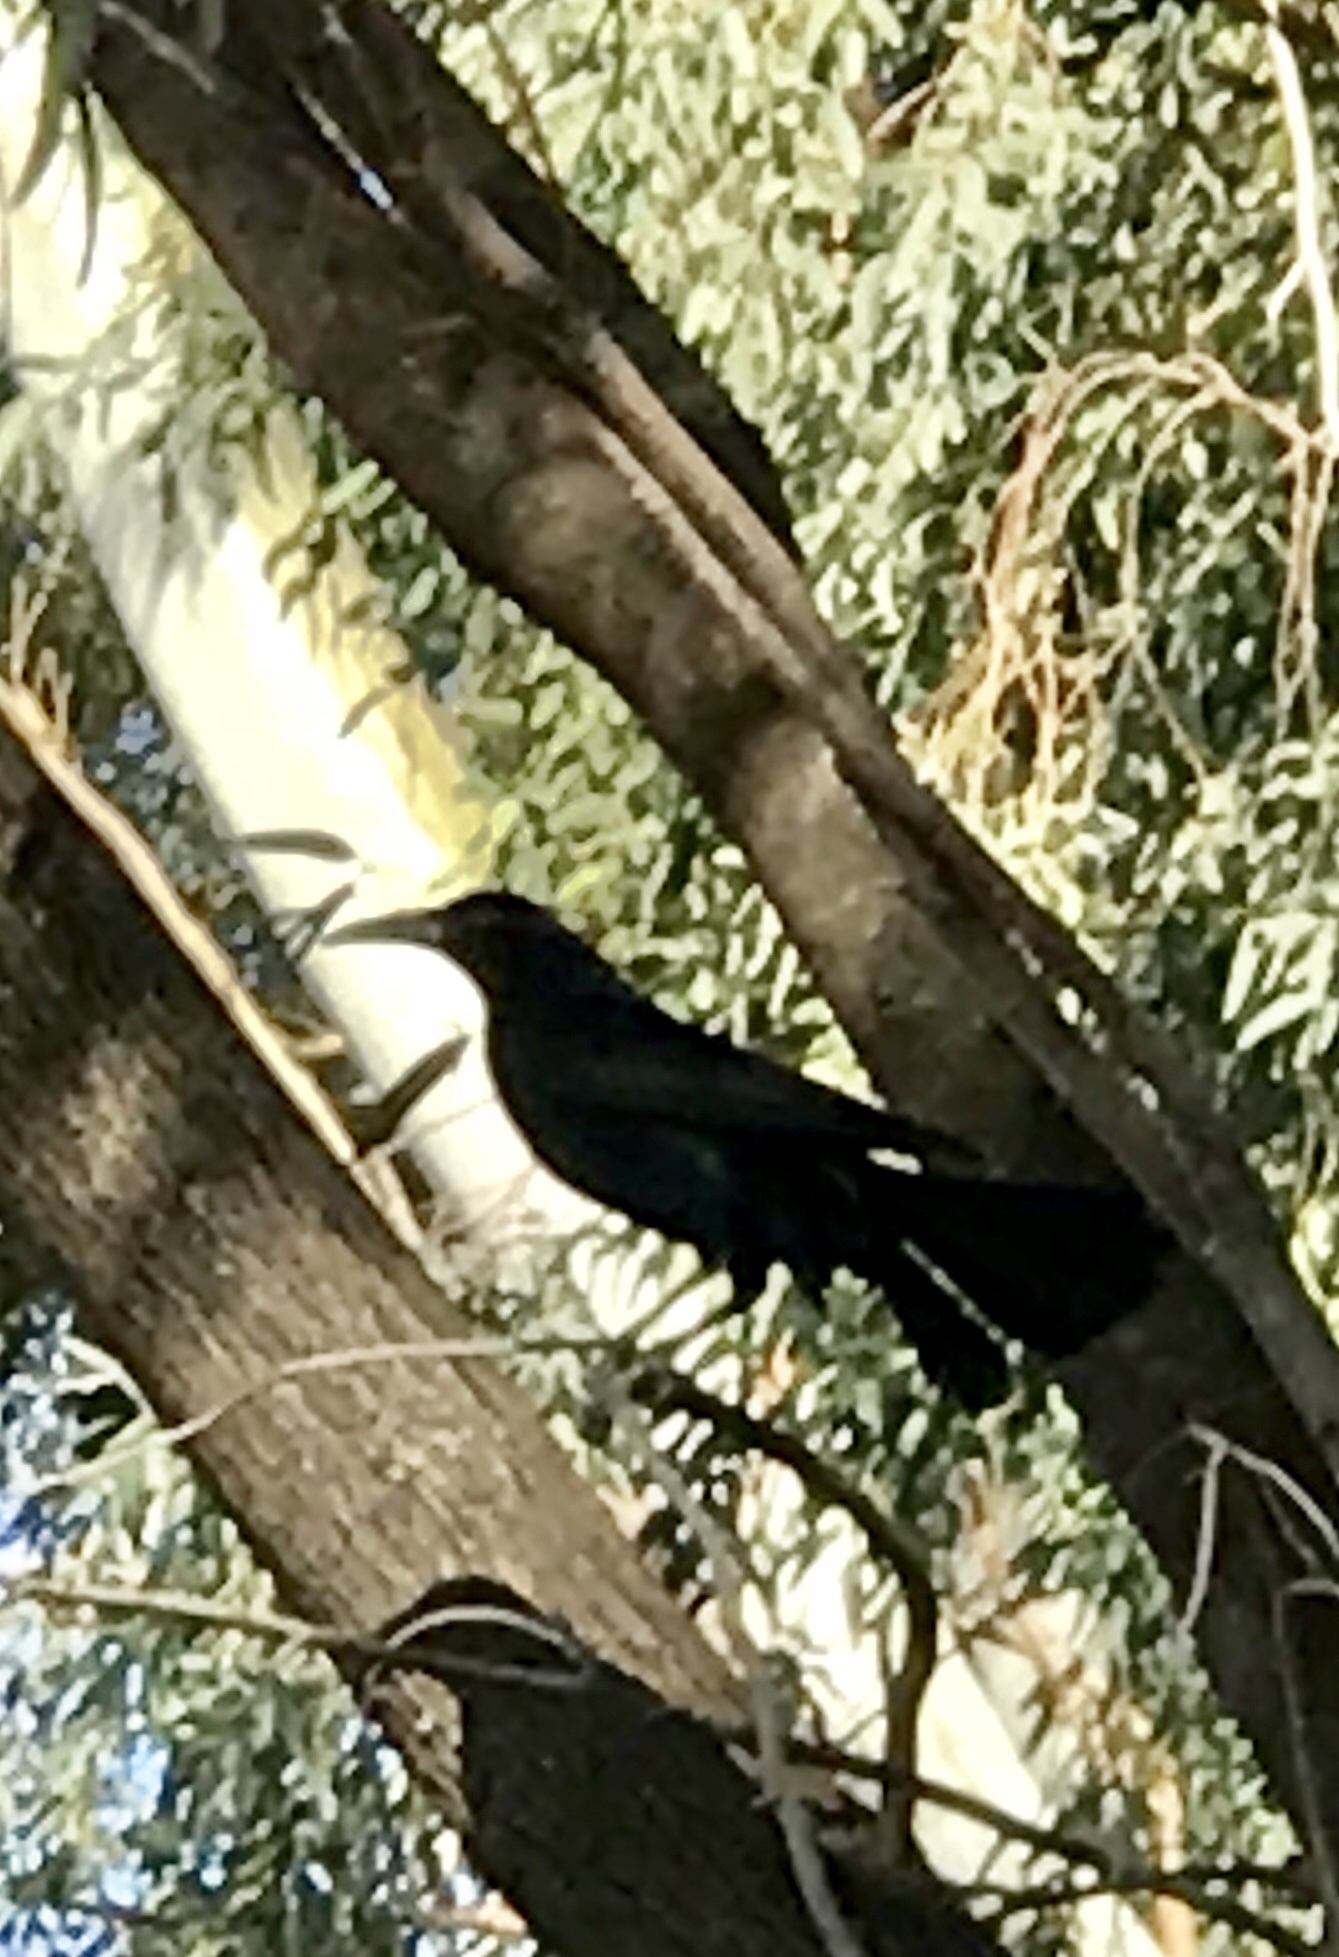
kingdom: Animalia
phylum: Chordata
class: Aves
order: Passeriformes
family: Icteridae
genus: Quiscalus
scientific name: Quiscalus mexicanus
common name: Great-tailed grackle
